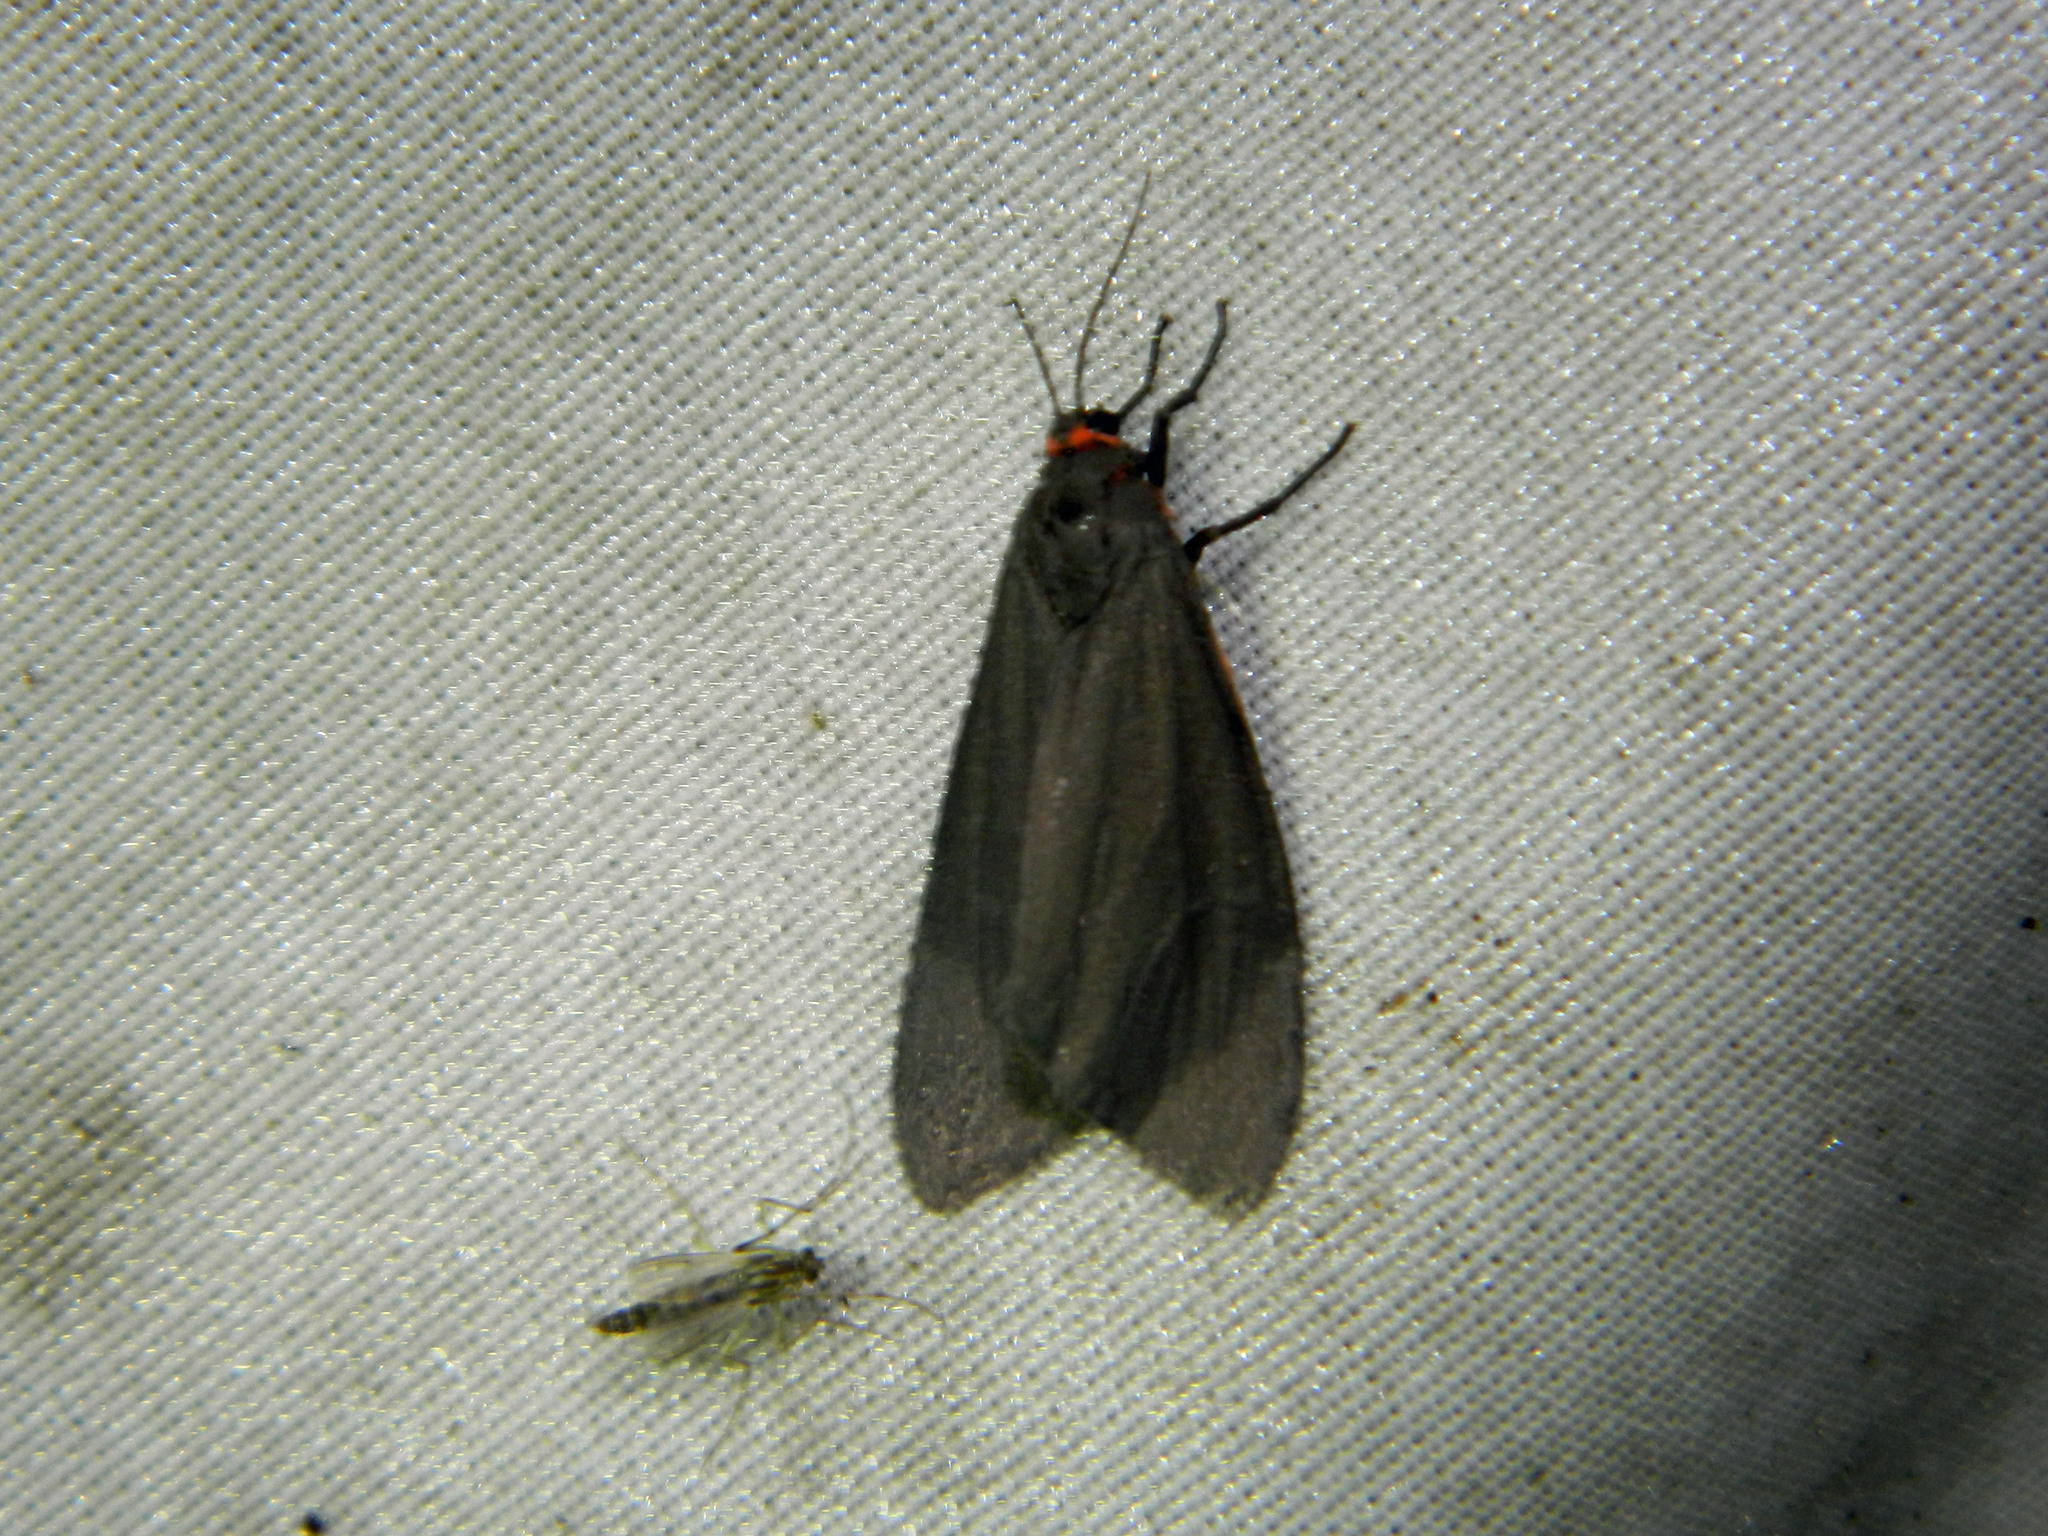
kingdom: Animalia
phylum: Arthropoda
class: Insecta
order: Lepidoptera
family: Erebidae
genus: Virbia
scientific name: Virbia laeta
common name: Joyful holomelina moth
